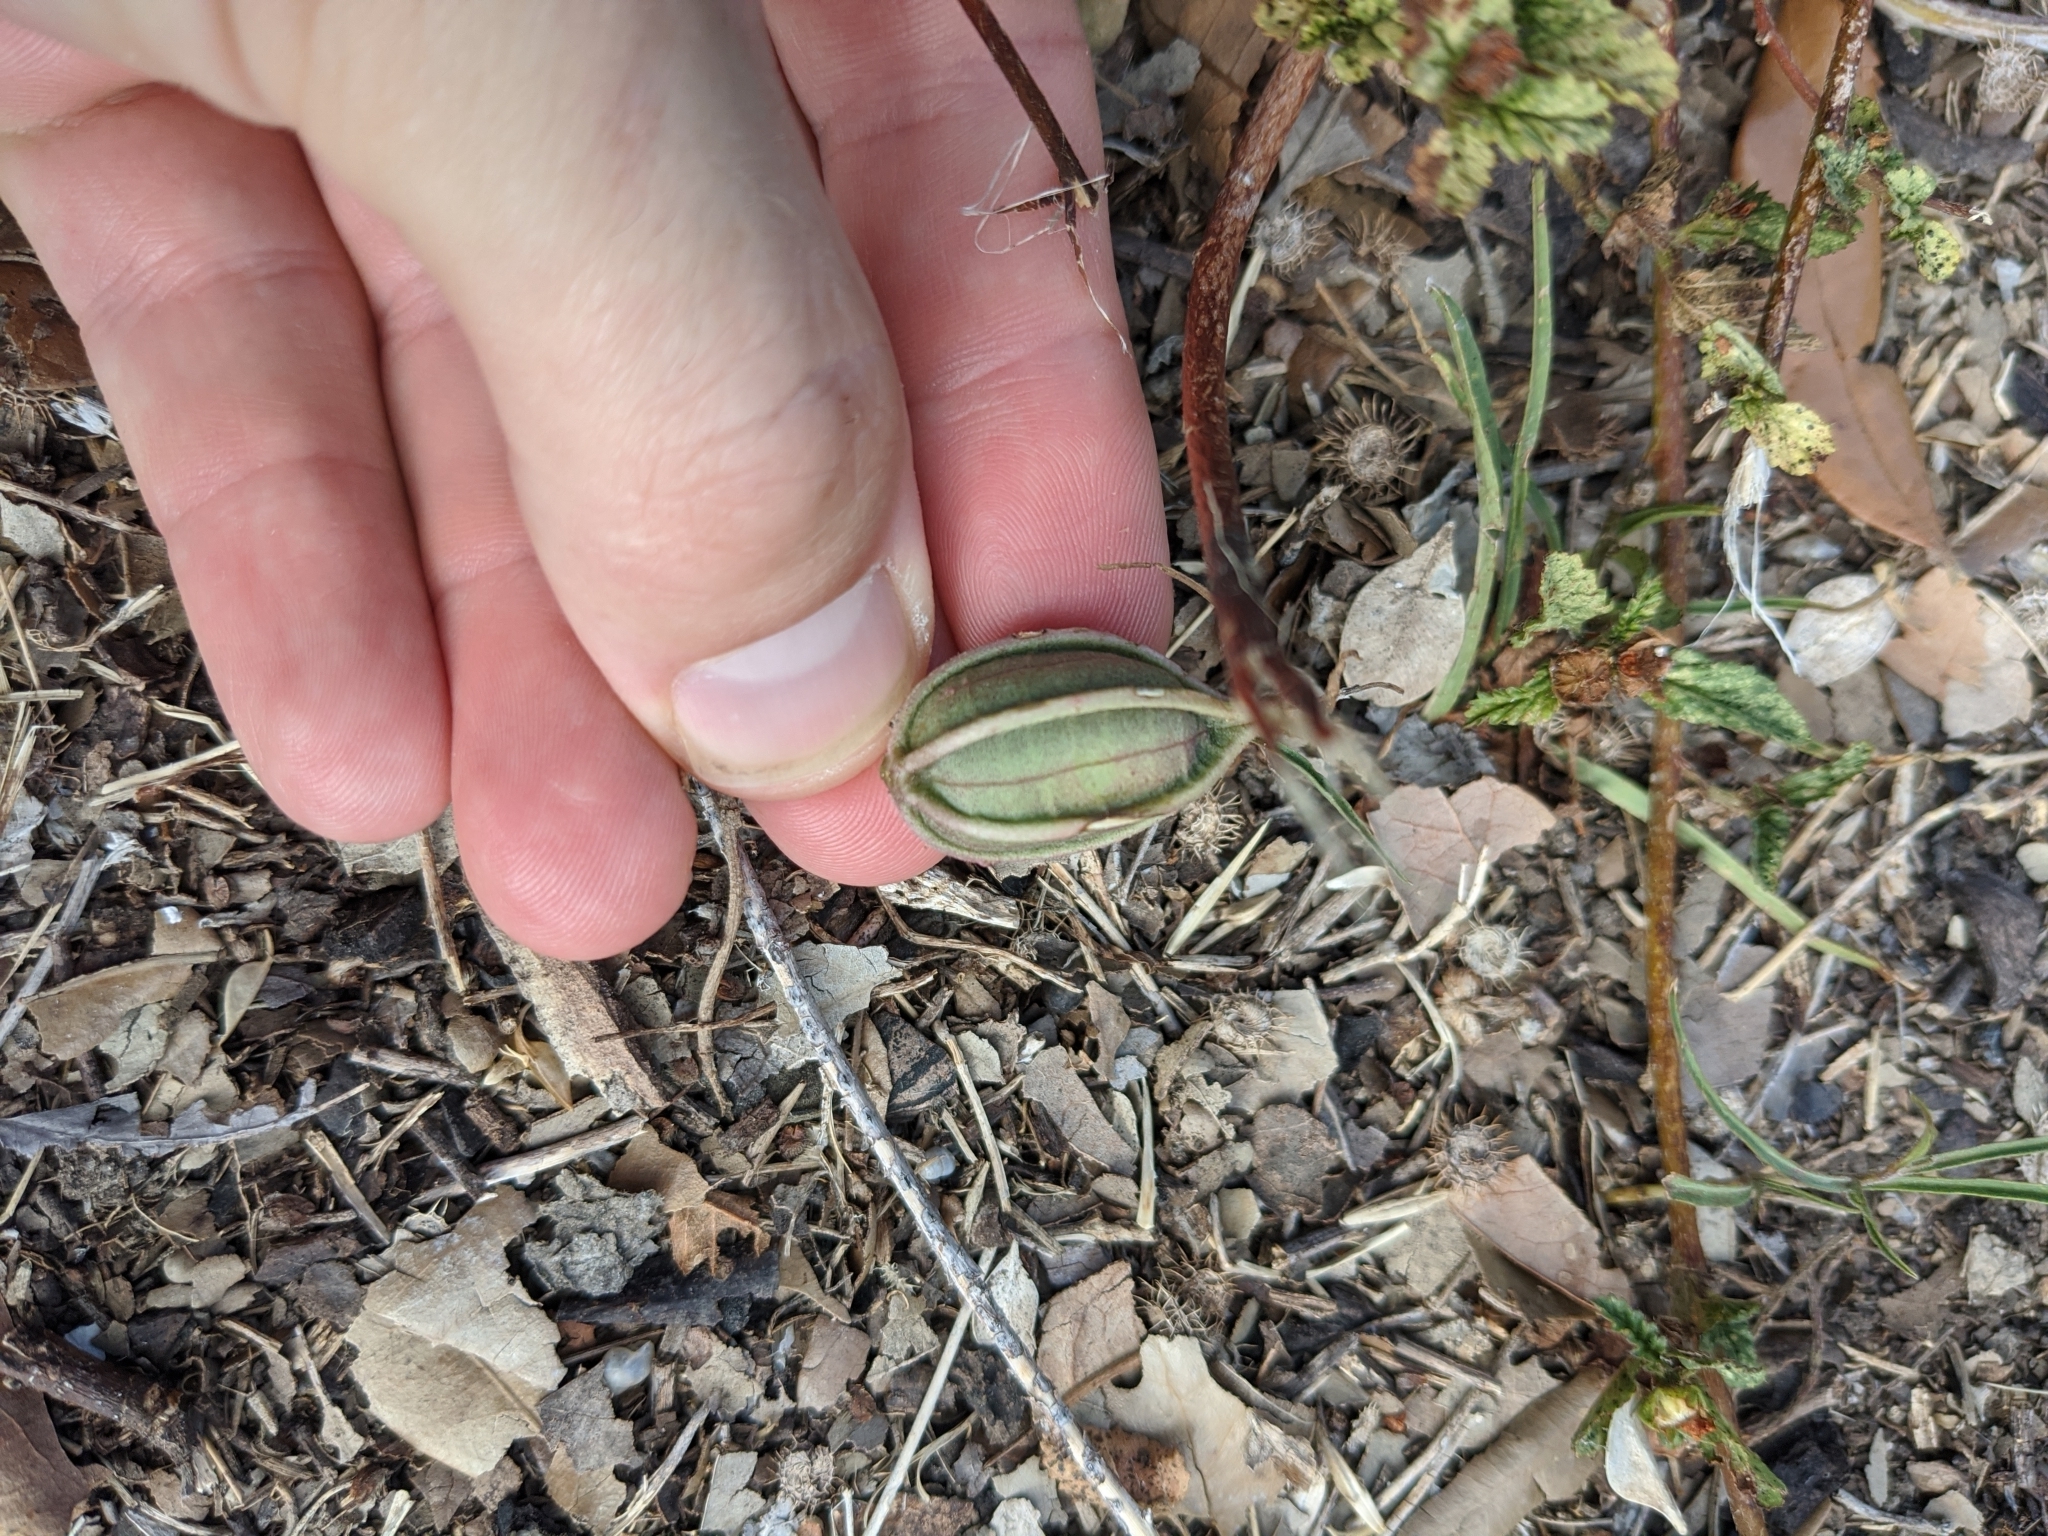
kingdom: Plantae
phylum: Tracheophyta
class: Magnoliopsida
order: Piperales
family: Aristolochiaceae
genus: Aristolochia
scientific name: Aristolochia erecta
